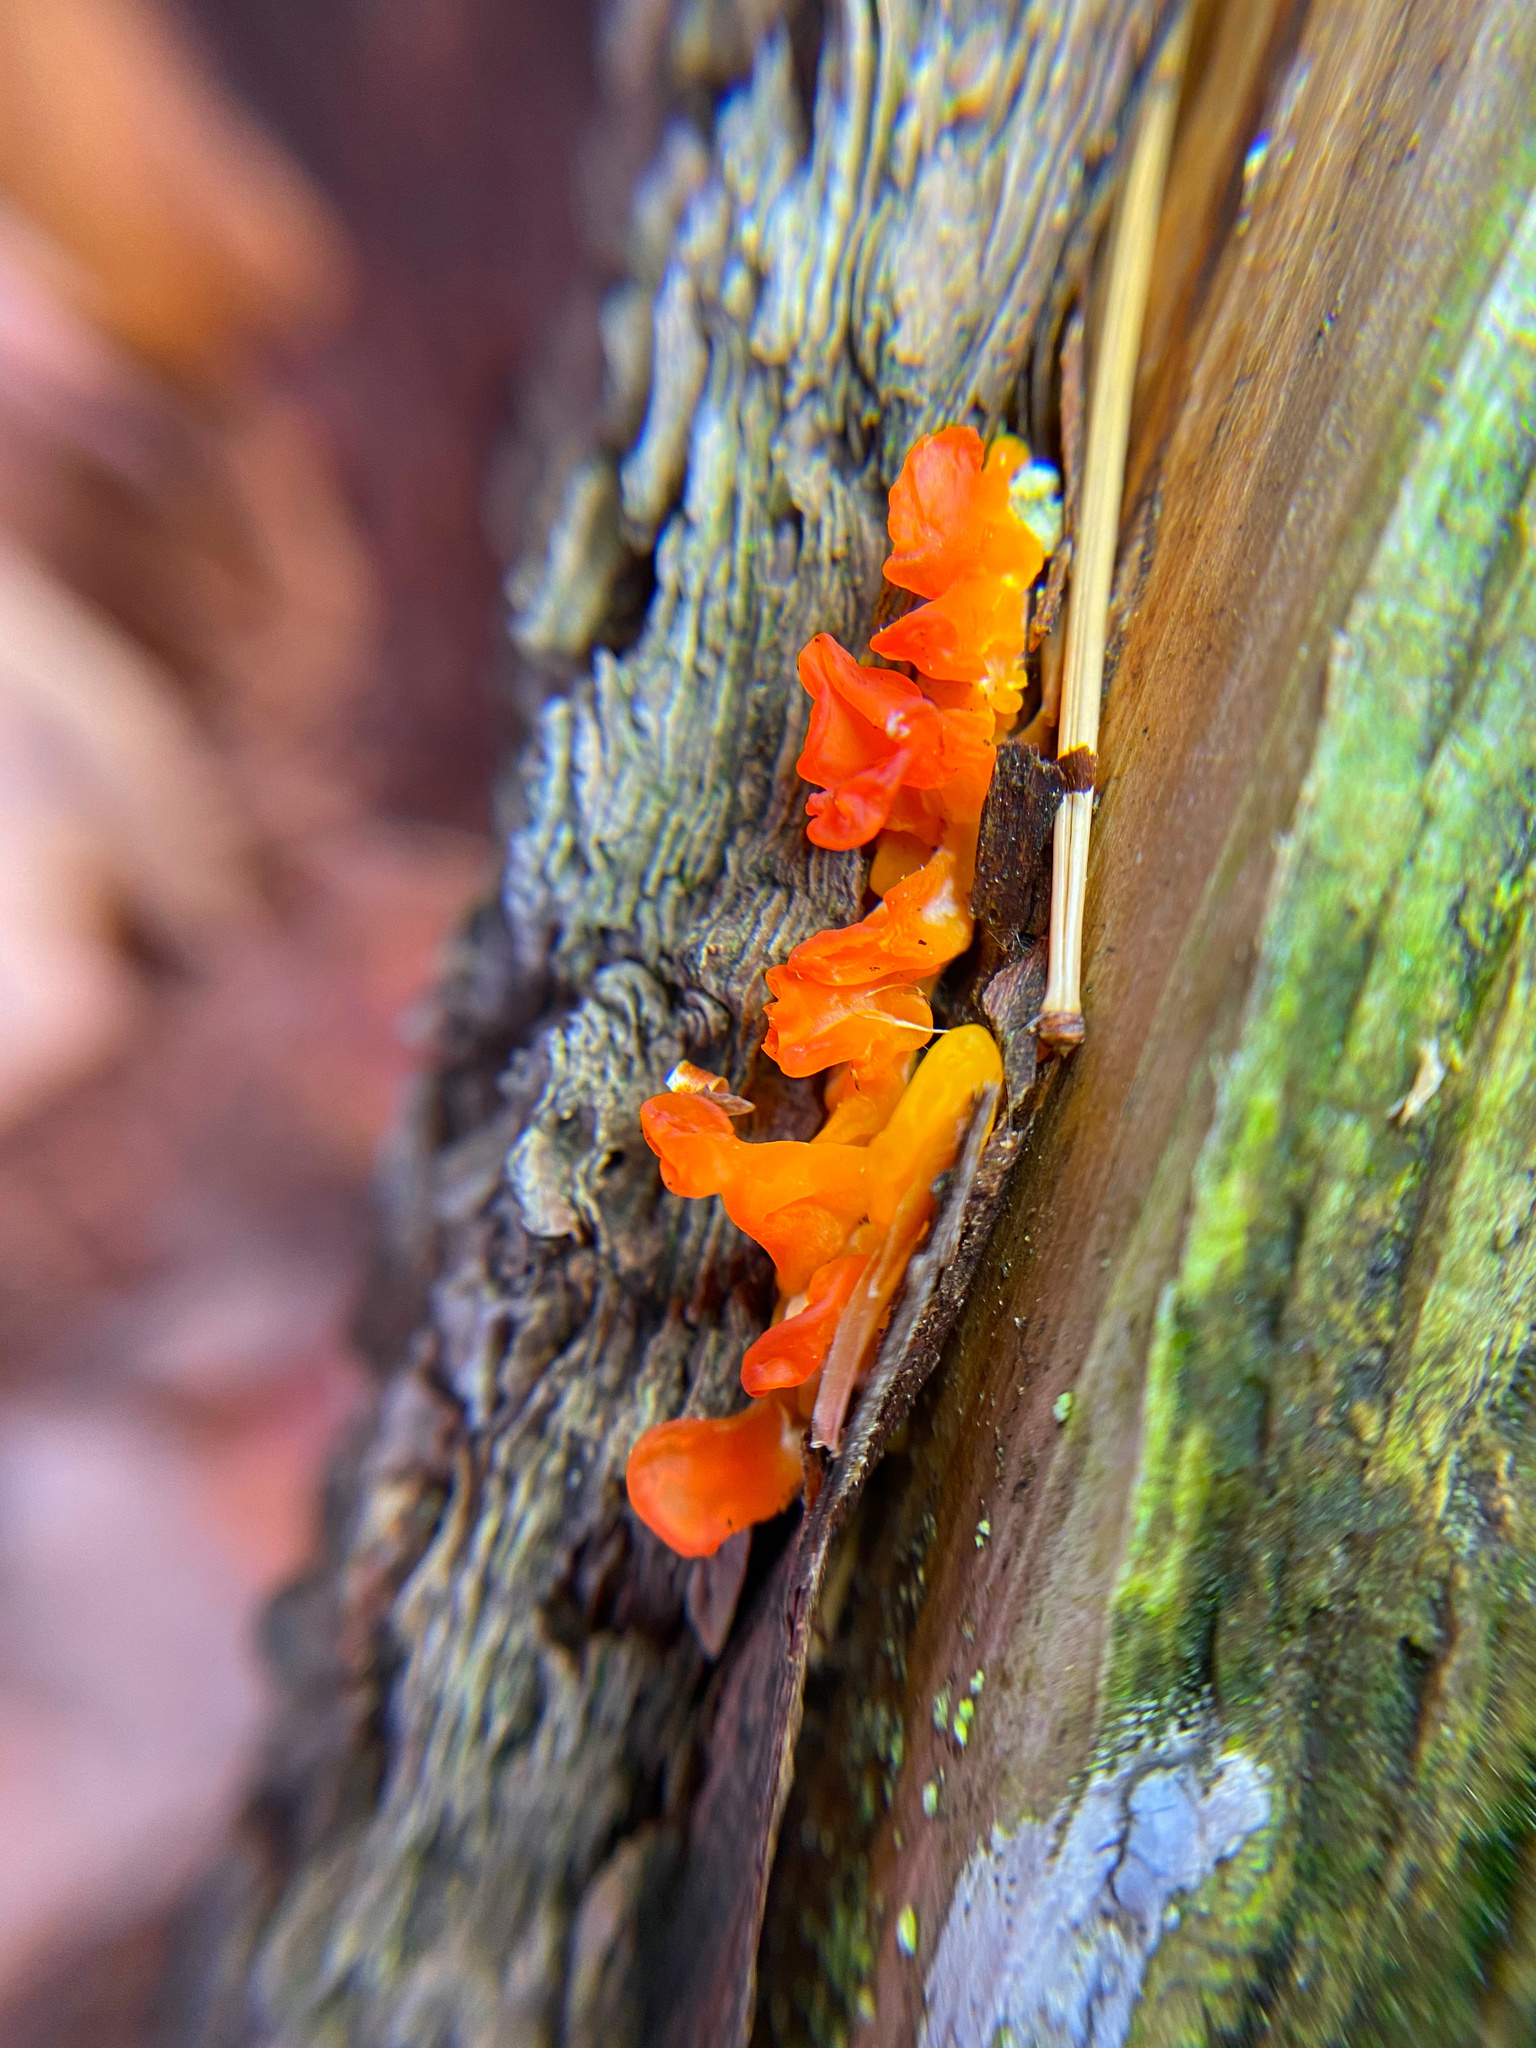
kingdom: Fungi
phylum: Basidiomycota
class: Dacrymycetes
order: Dacrymycetales
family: Dacrymycetaceae
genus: Dacrymyces
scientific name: Dacrymyces spathularius
